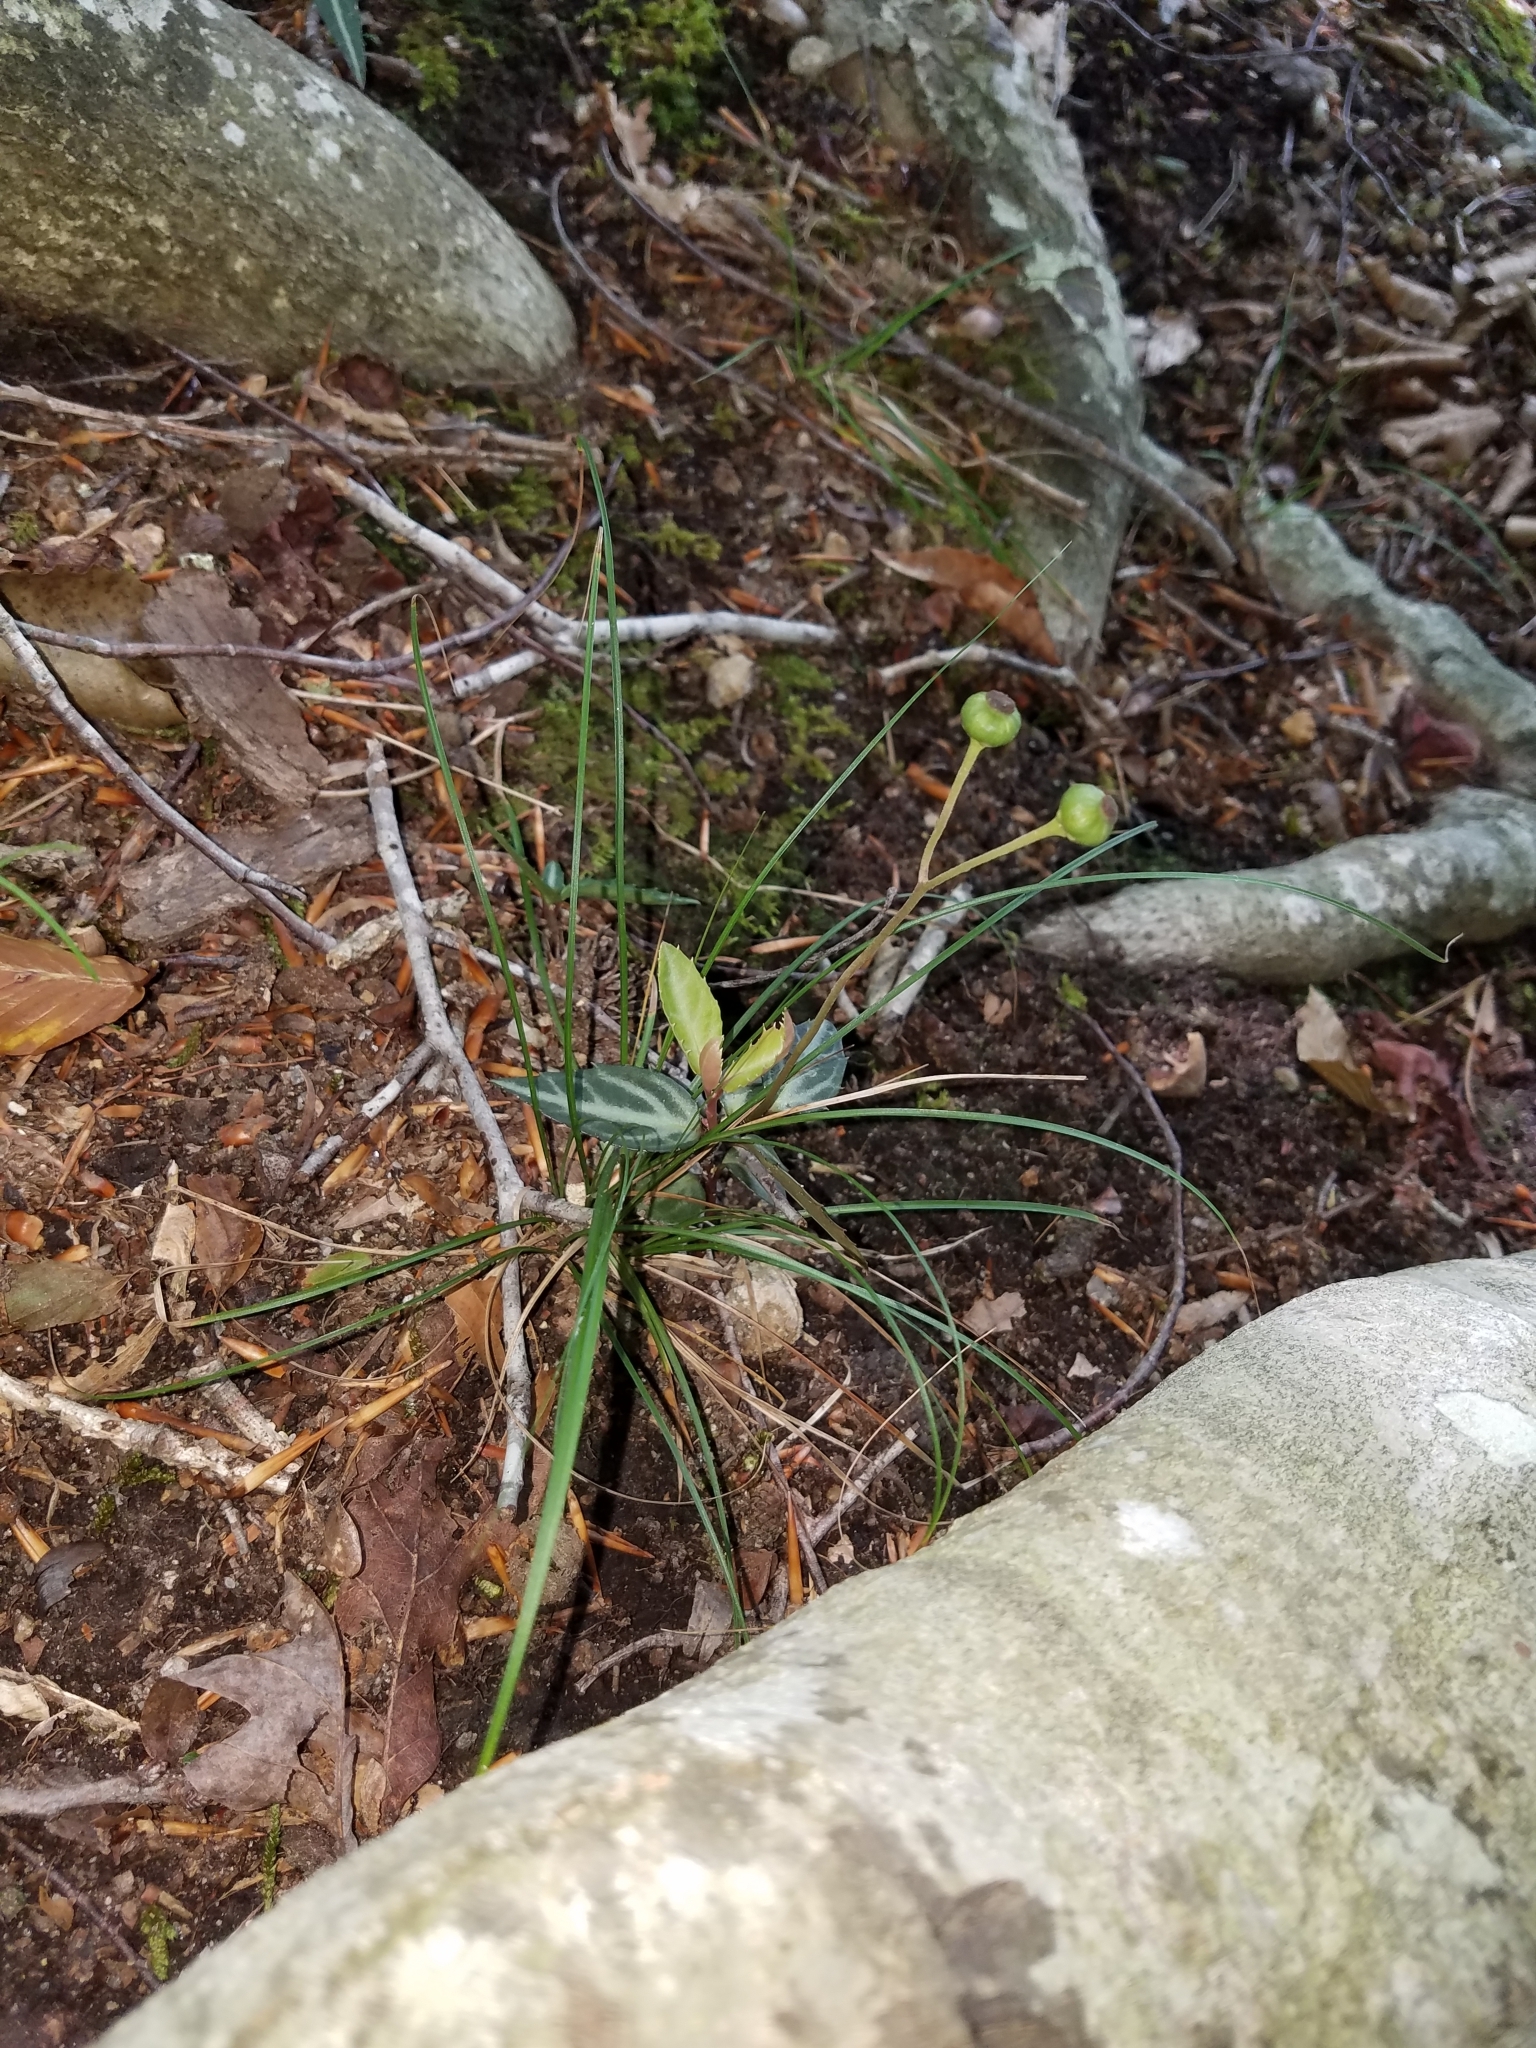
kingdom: Plantae
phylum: Tracheophyta
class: Magnoliopsida
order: Ericales
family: Ericaceae
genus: Chimaphila
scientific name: Chimaphila maculata
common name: Spotted pipsissewa
